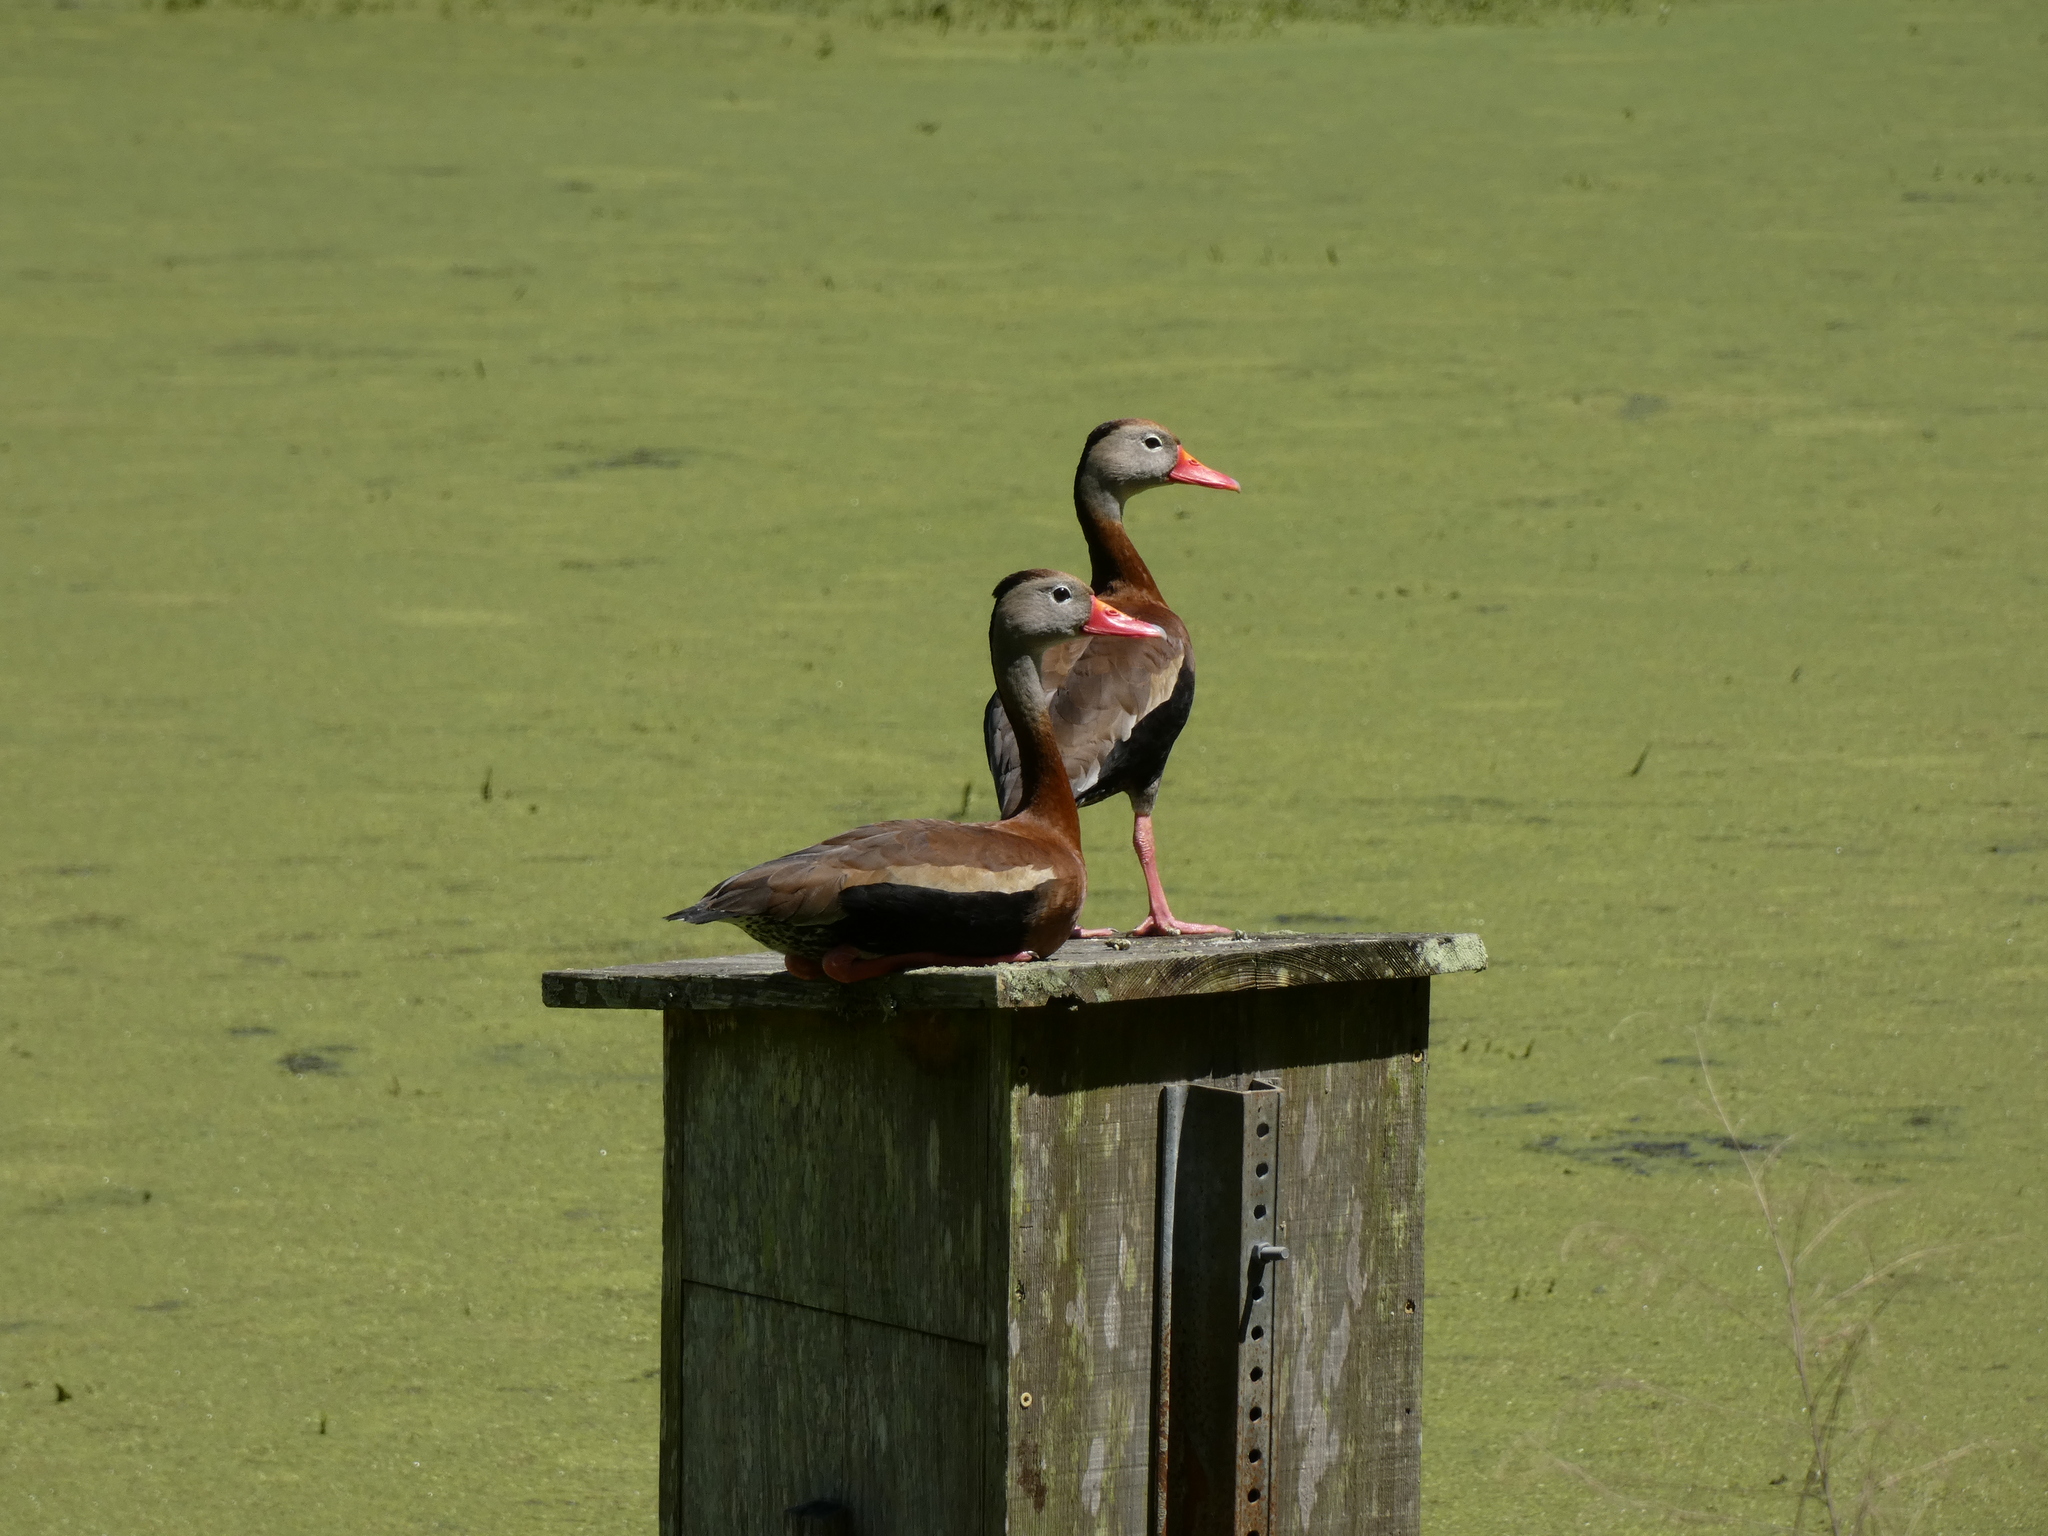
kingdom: Animalia
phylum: Chordata
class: Aves
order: Anseriformes
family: Anatidae
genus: Dendrocygna
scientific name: Dendrocygna autumnalis
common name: Black-bellied whistling duck
